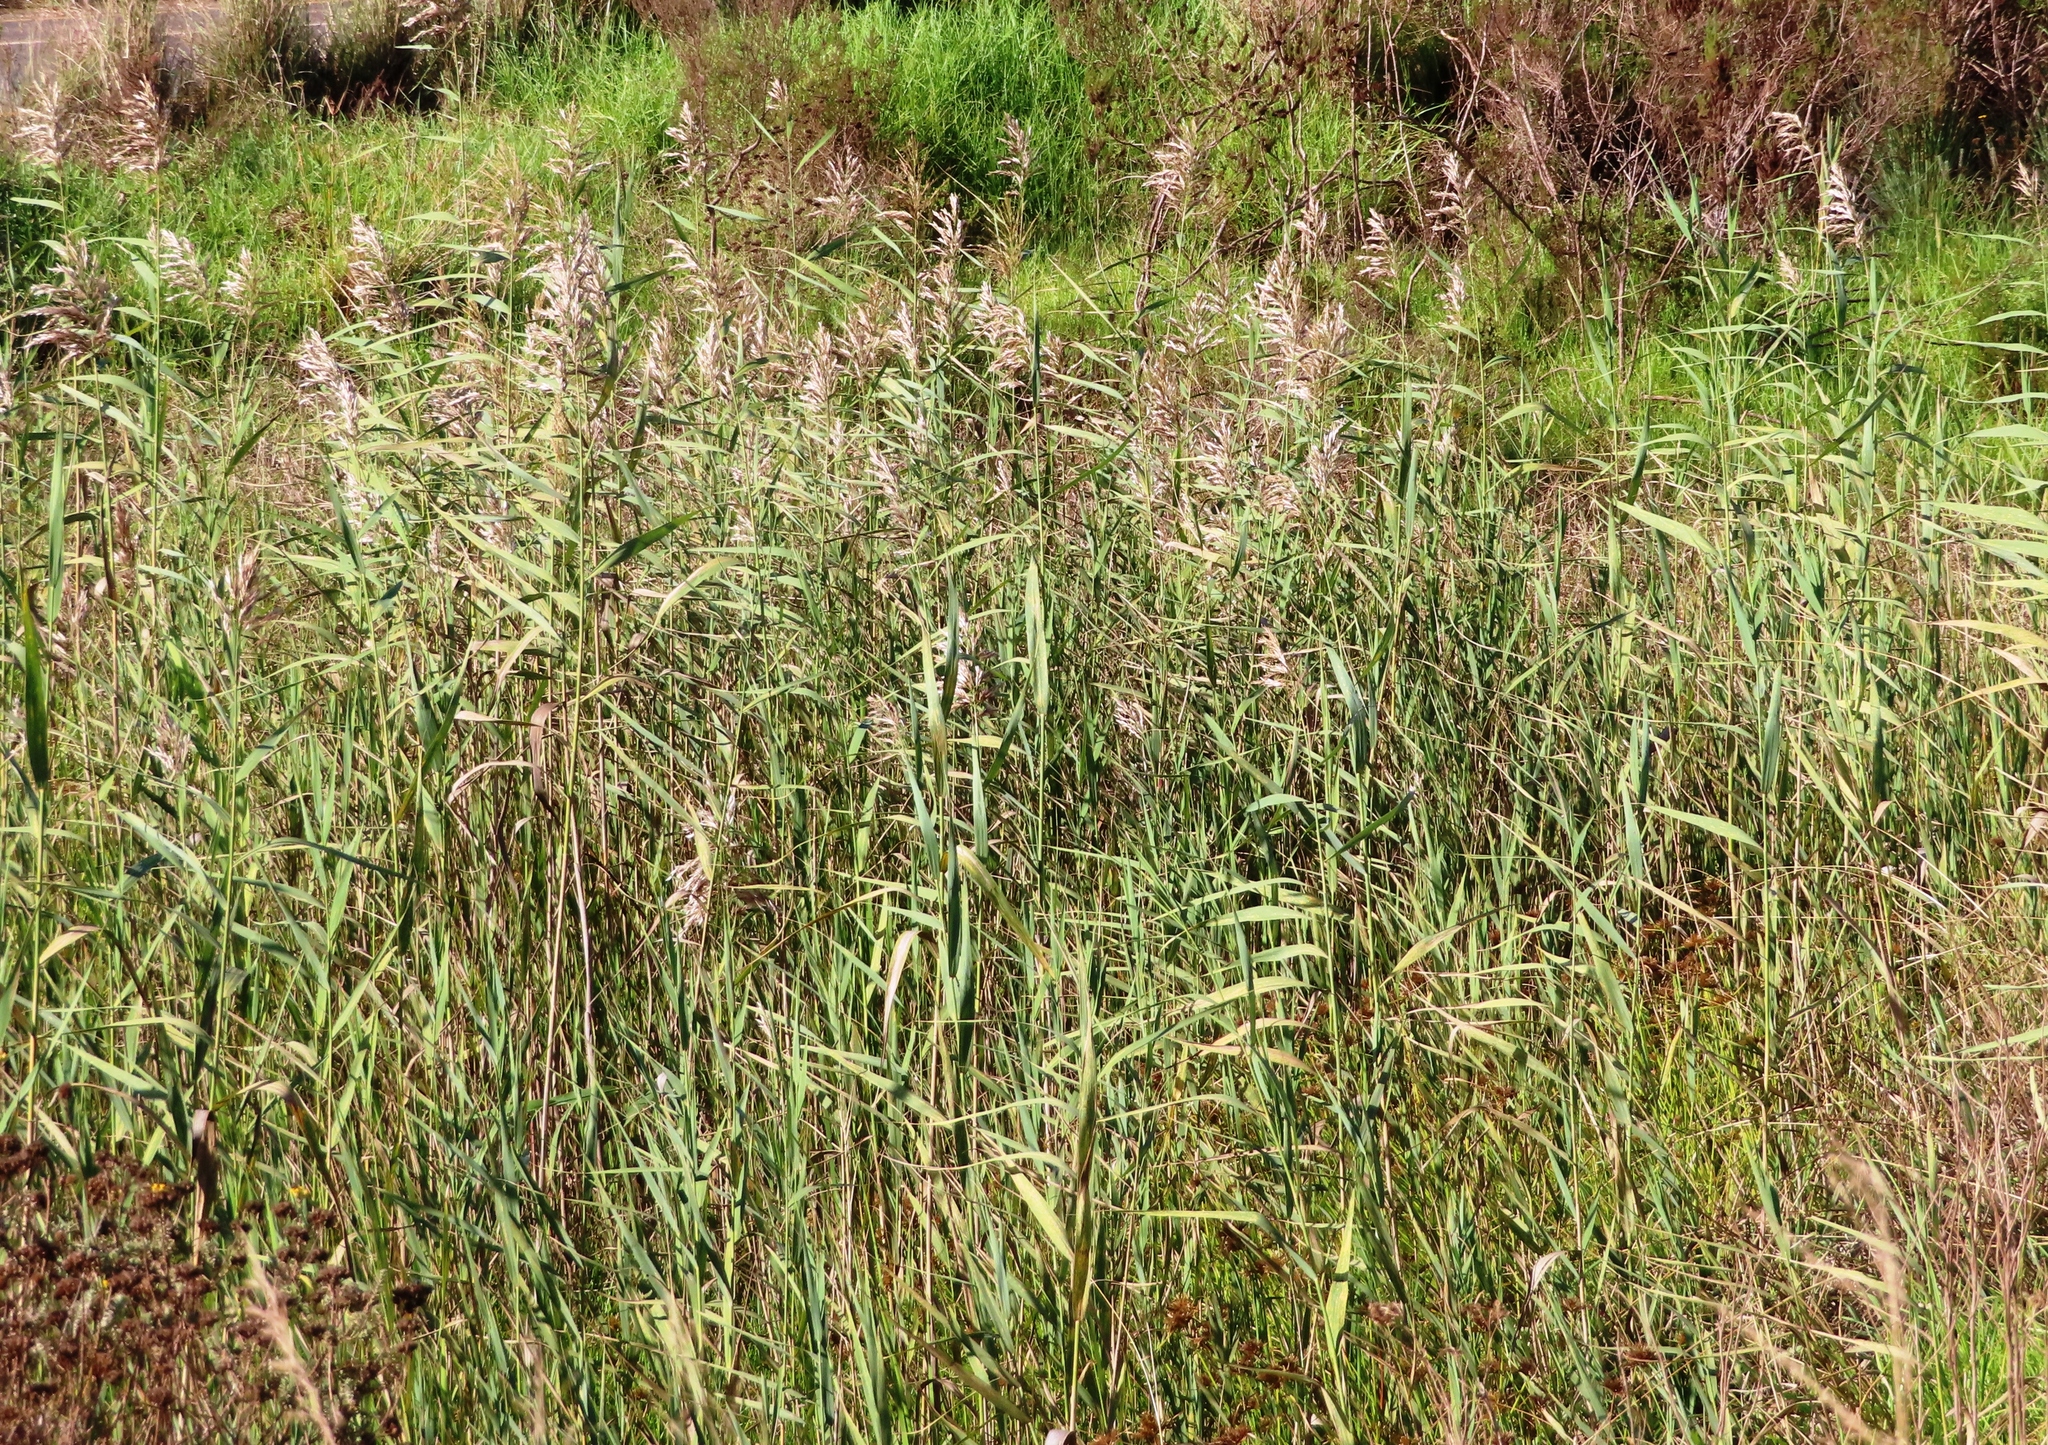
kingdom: Plantae
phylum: Tracheophyta
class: Liliopsida
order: Poales
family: Poaceae
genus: Phragmites
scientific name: Phragmites australis
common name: Common reed
